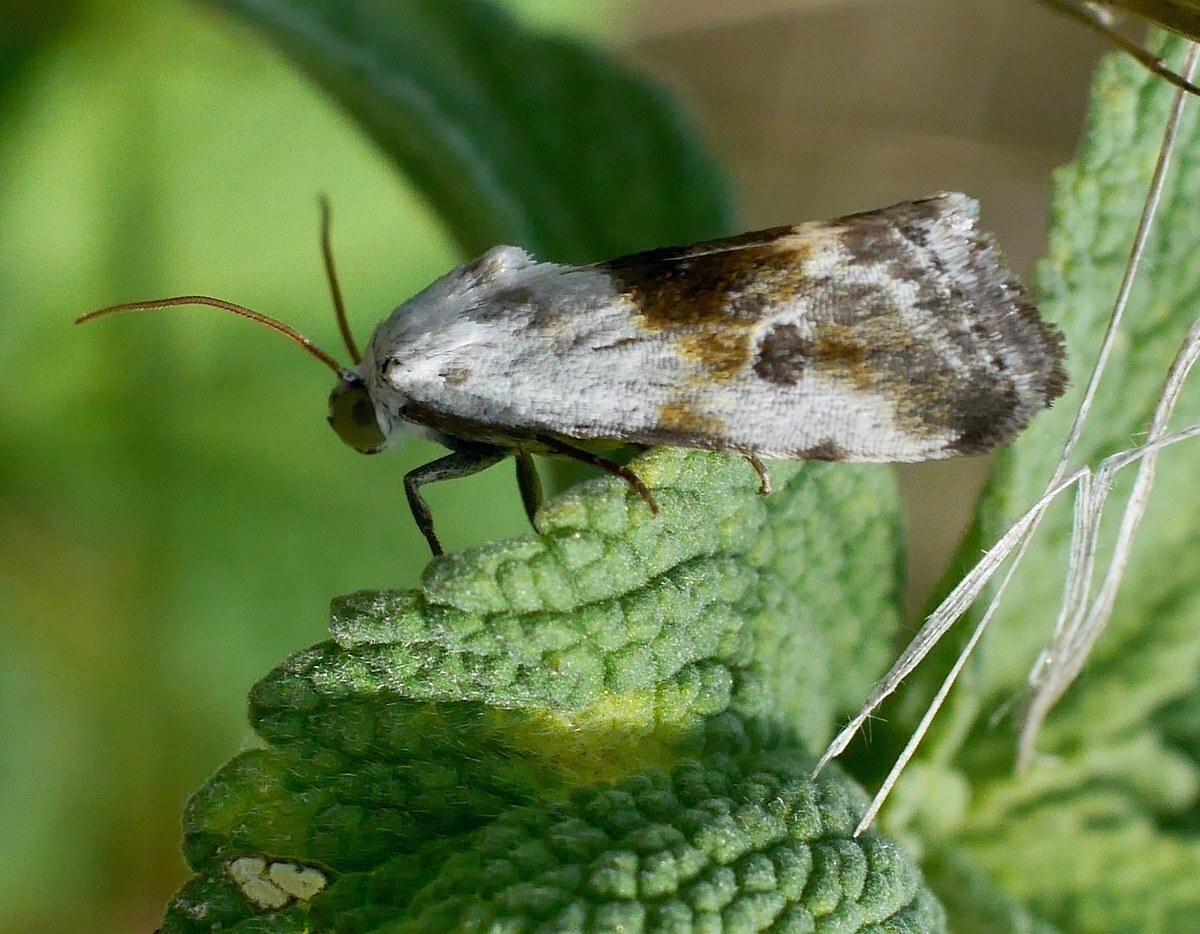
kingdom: Animalia
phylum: Arthropoda
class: Insecta
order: Lepidoptera
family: Noctuidae
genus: Acontia
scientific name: Acontia candefacta
